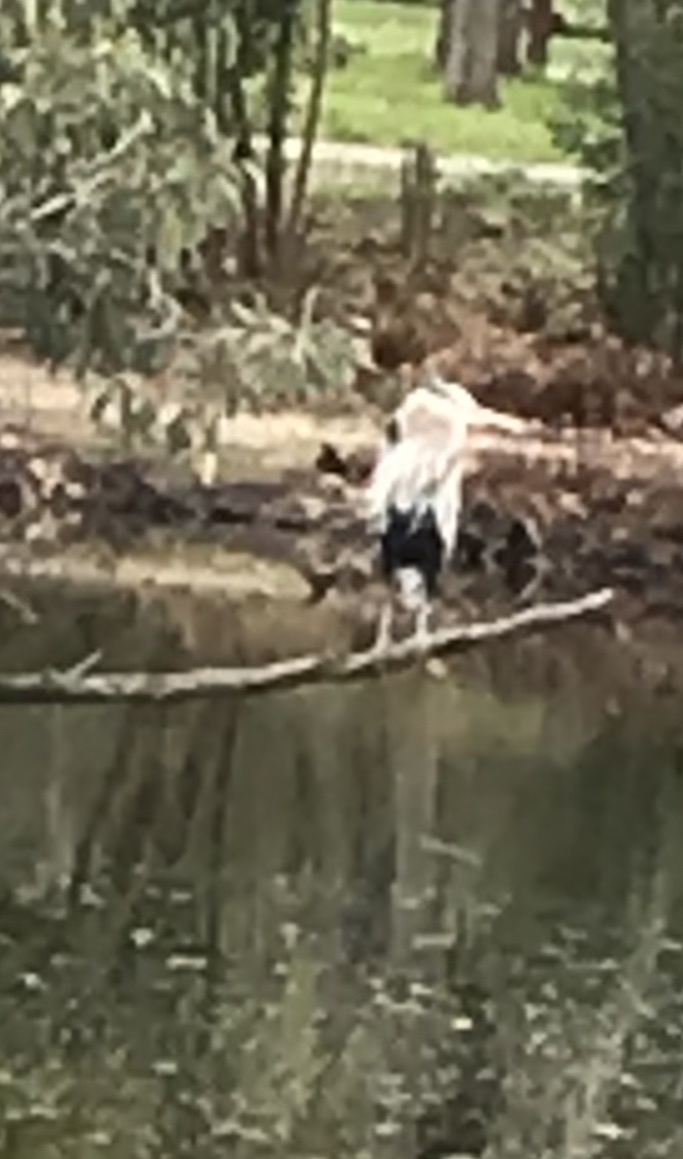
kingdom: Animalia
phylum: Chordata
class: Aves
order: Pelecaniformes
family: Ardeidae
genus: Ardea
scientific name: Ardea herodias
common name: Great blue heron
